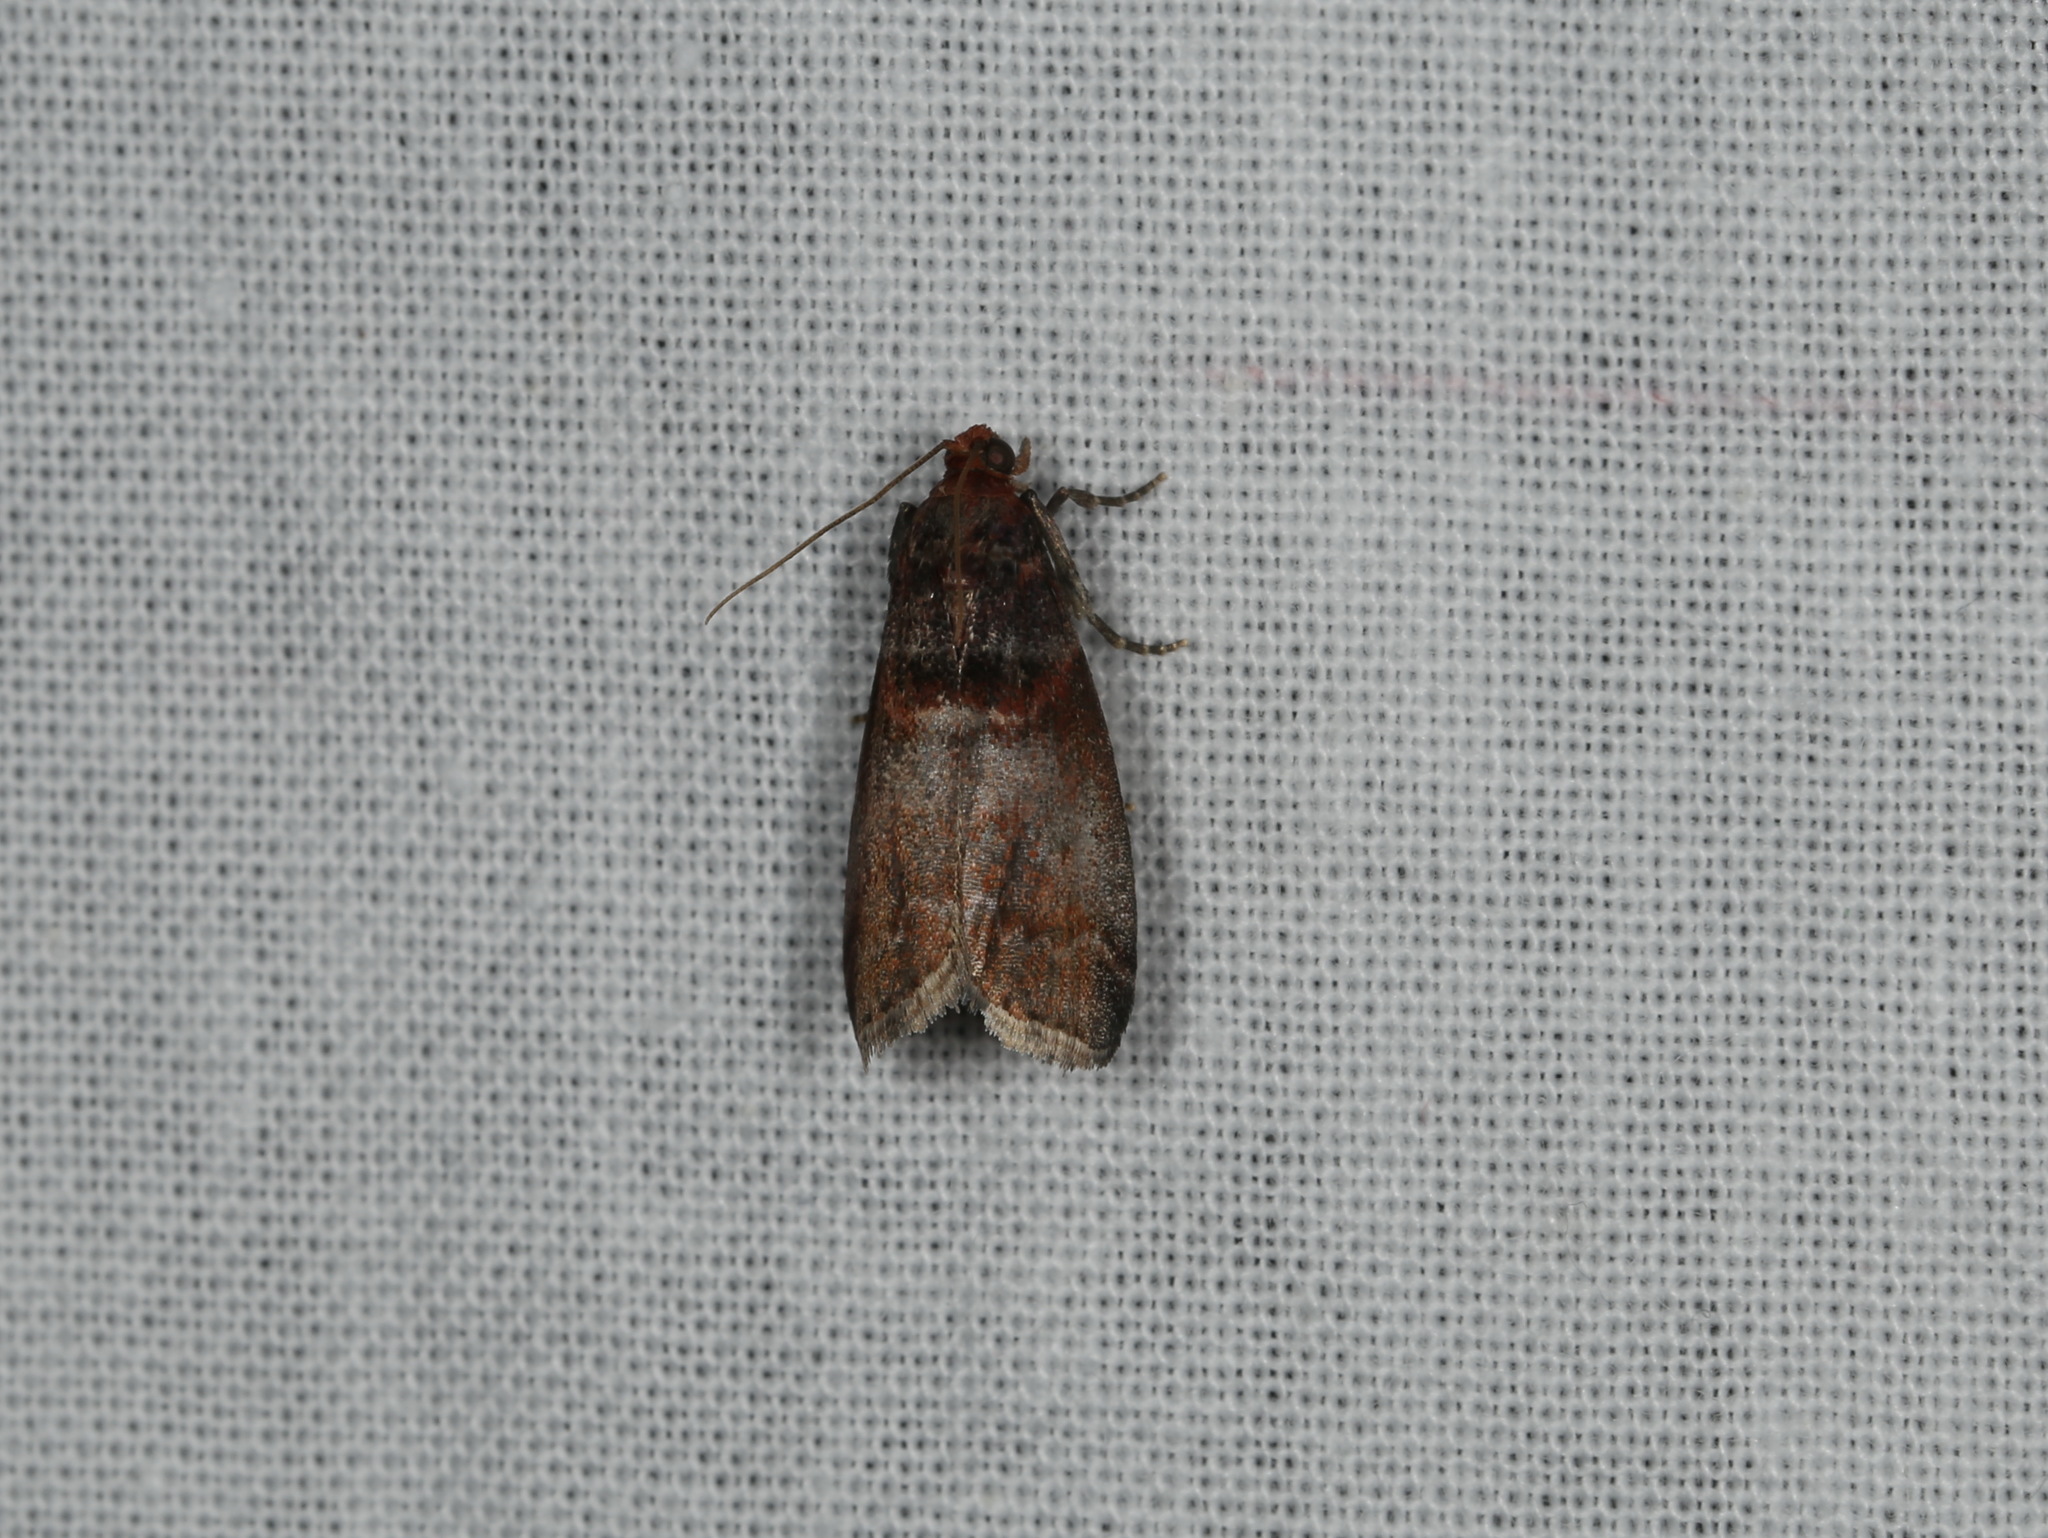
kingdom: Animalia
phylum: Arthropoda
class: Insecta
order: Lepidoptera
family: Pyralidae
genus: Acrobasis
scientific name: Acrobasis advenella
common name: Grey knot-horn
